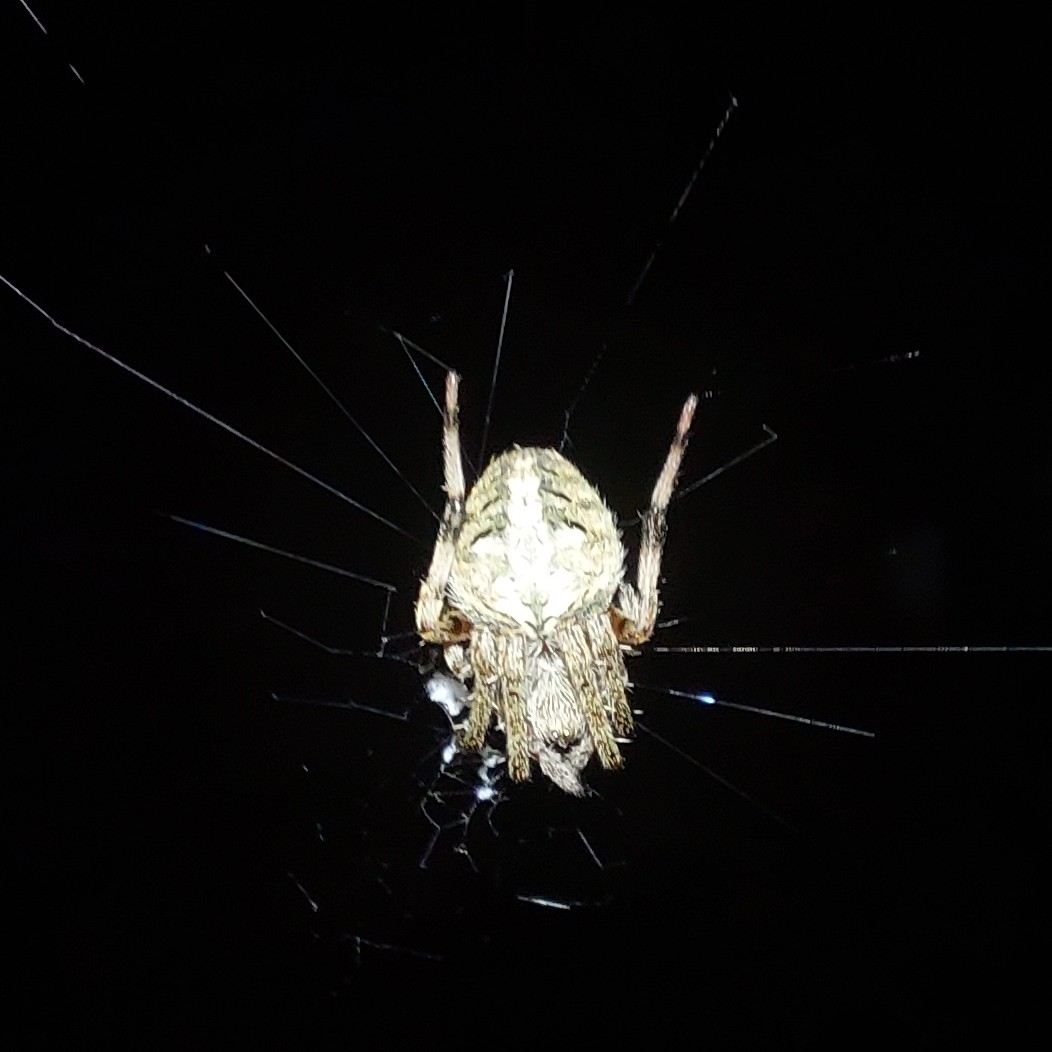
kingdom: Animalia
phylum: Arthropoda
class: Arachnida
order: Araneae
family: Araneidae
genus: Neoscona
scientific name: Neoscona crucifera
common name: Spotted orbweaver
